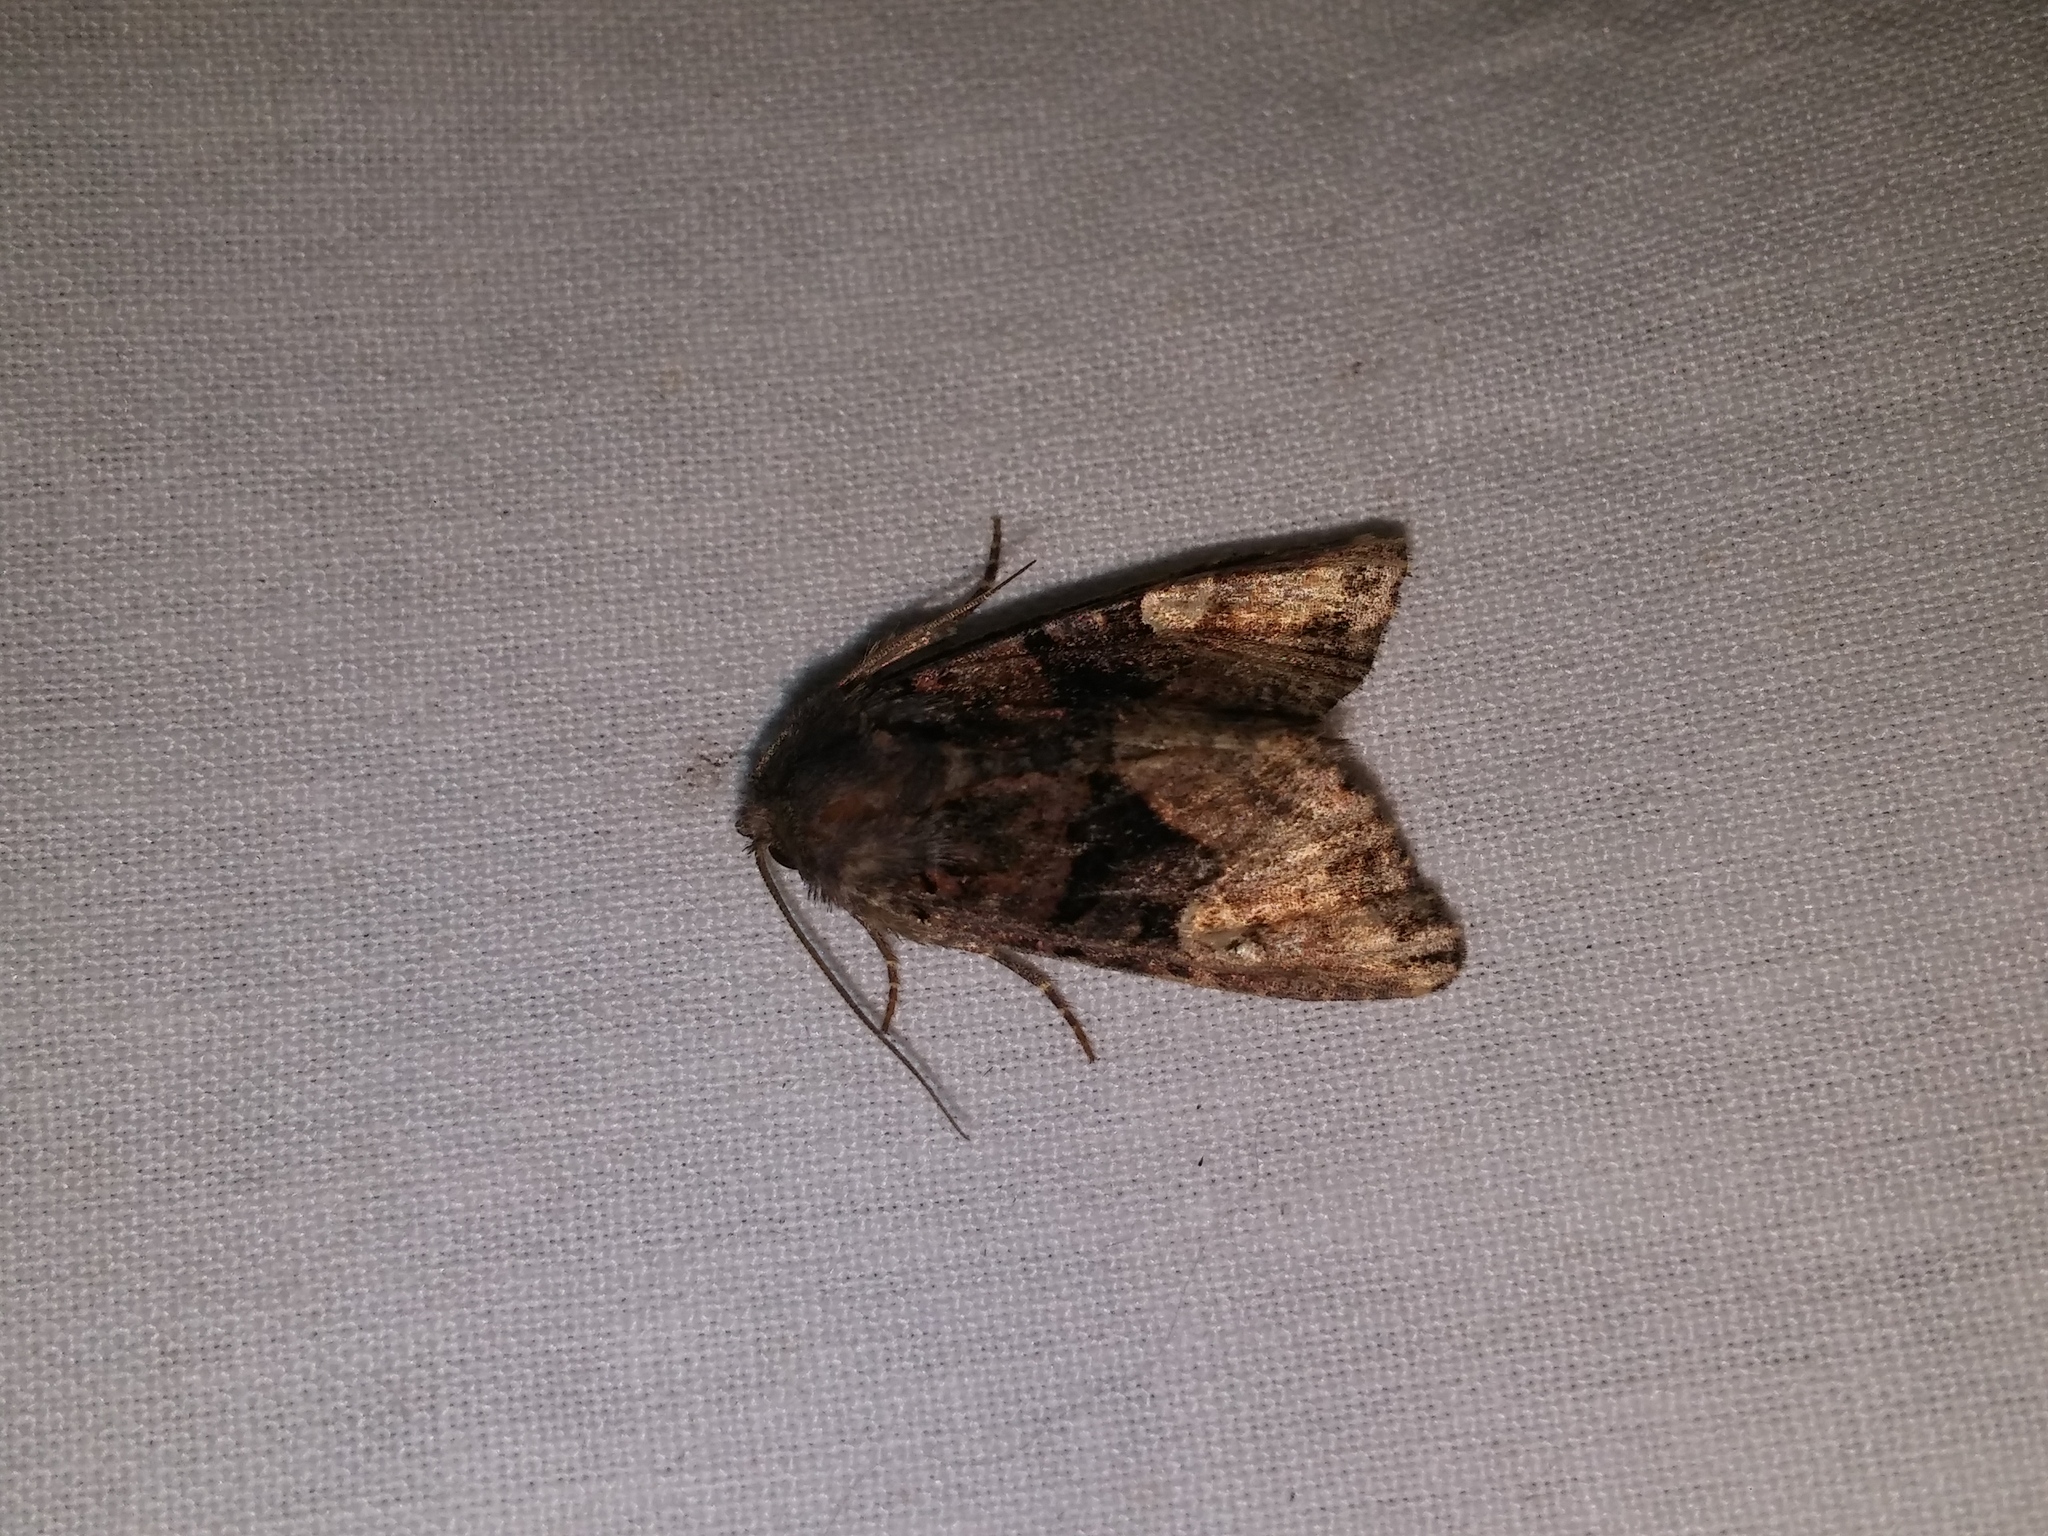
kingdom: Animalia
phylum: Arthropoda
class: Insecta
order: Lepidoptera
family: Noctuidae
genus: Euplexia
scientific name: Euplexia benesimilis
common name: American angle shades
